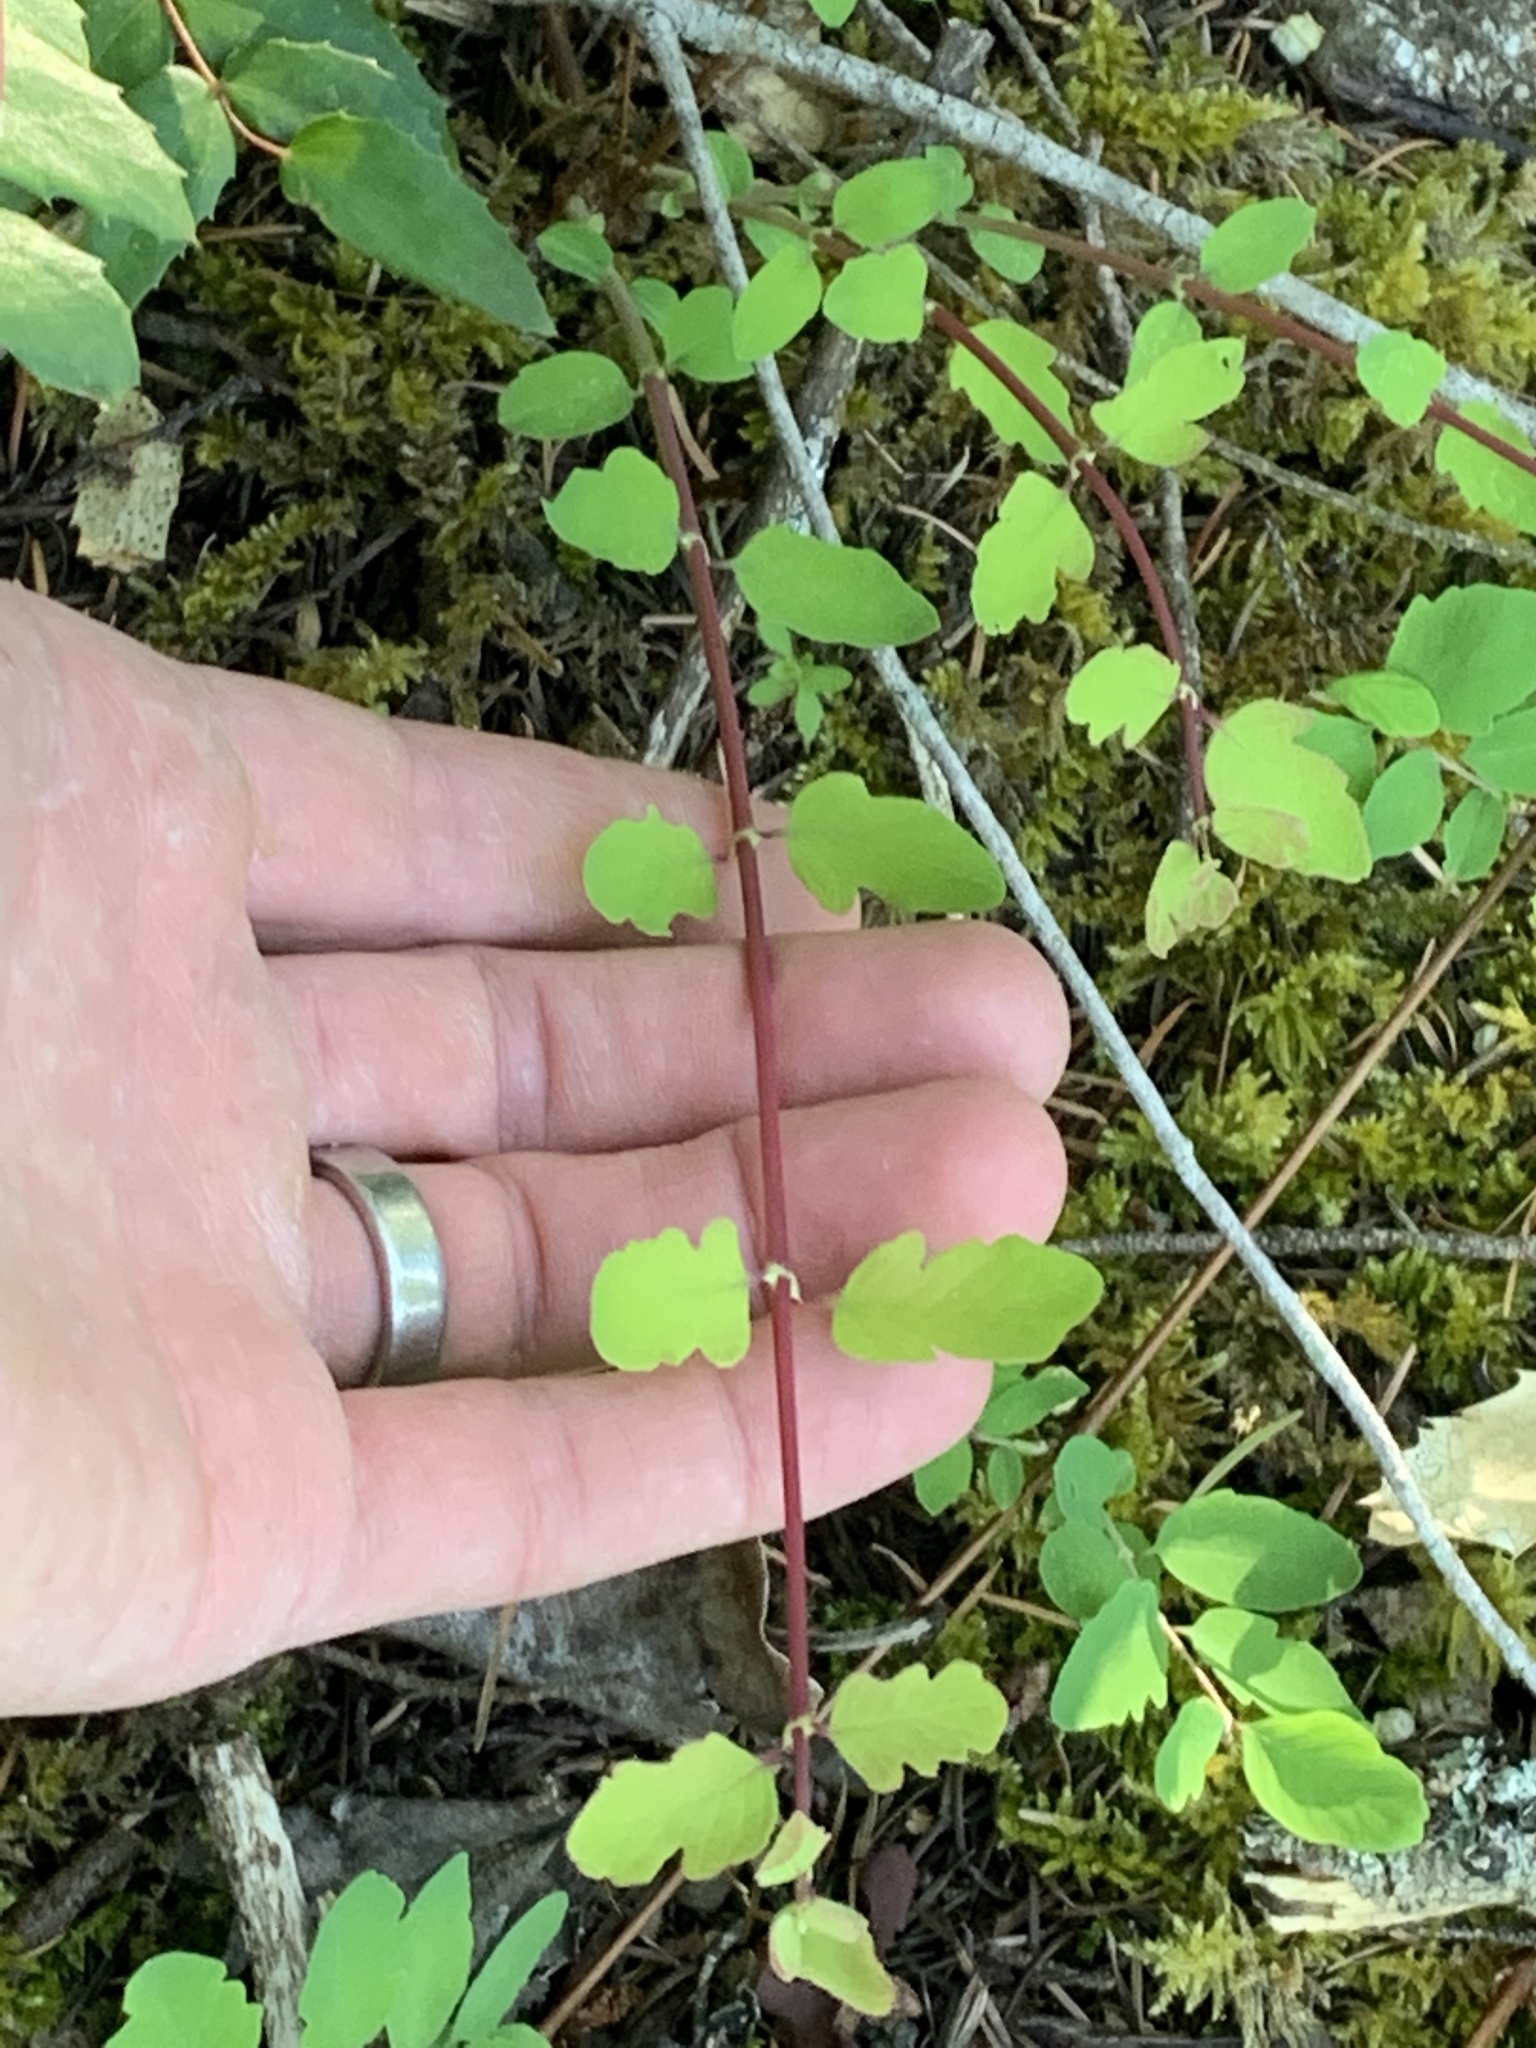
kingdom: Plantae
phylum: Tracheophyta
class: Magnoliopsida
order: Dipsacales
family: Caprifoliaceae
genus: Symphoricarpos
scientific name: Symphoricarpos mollis
